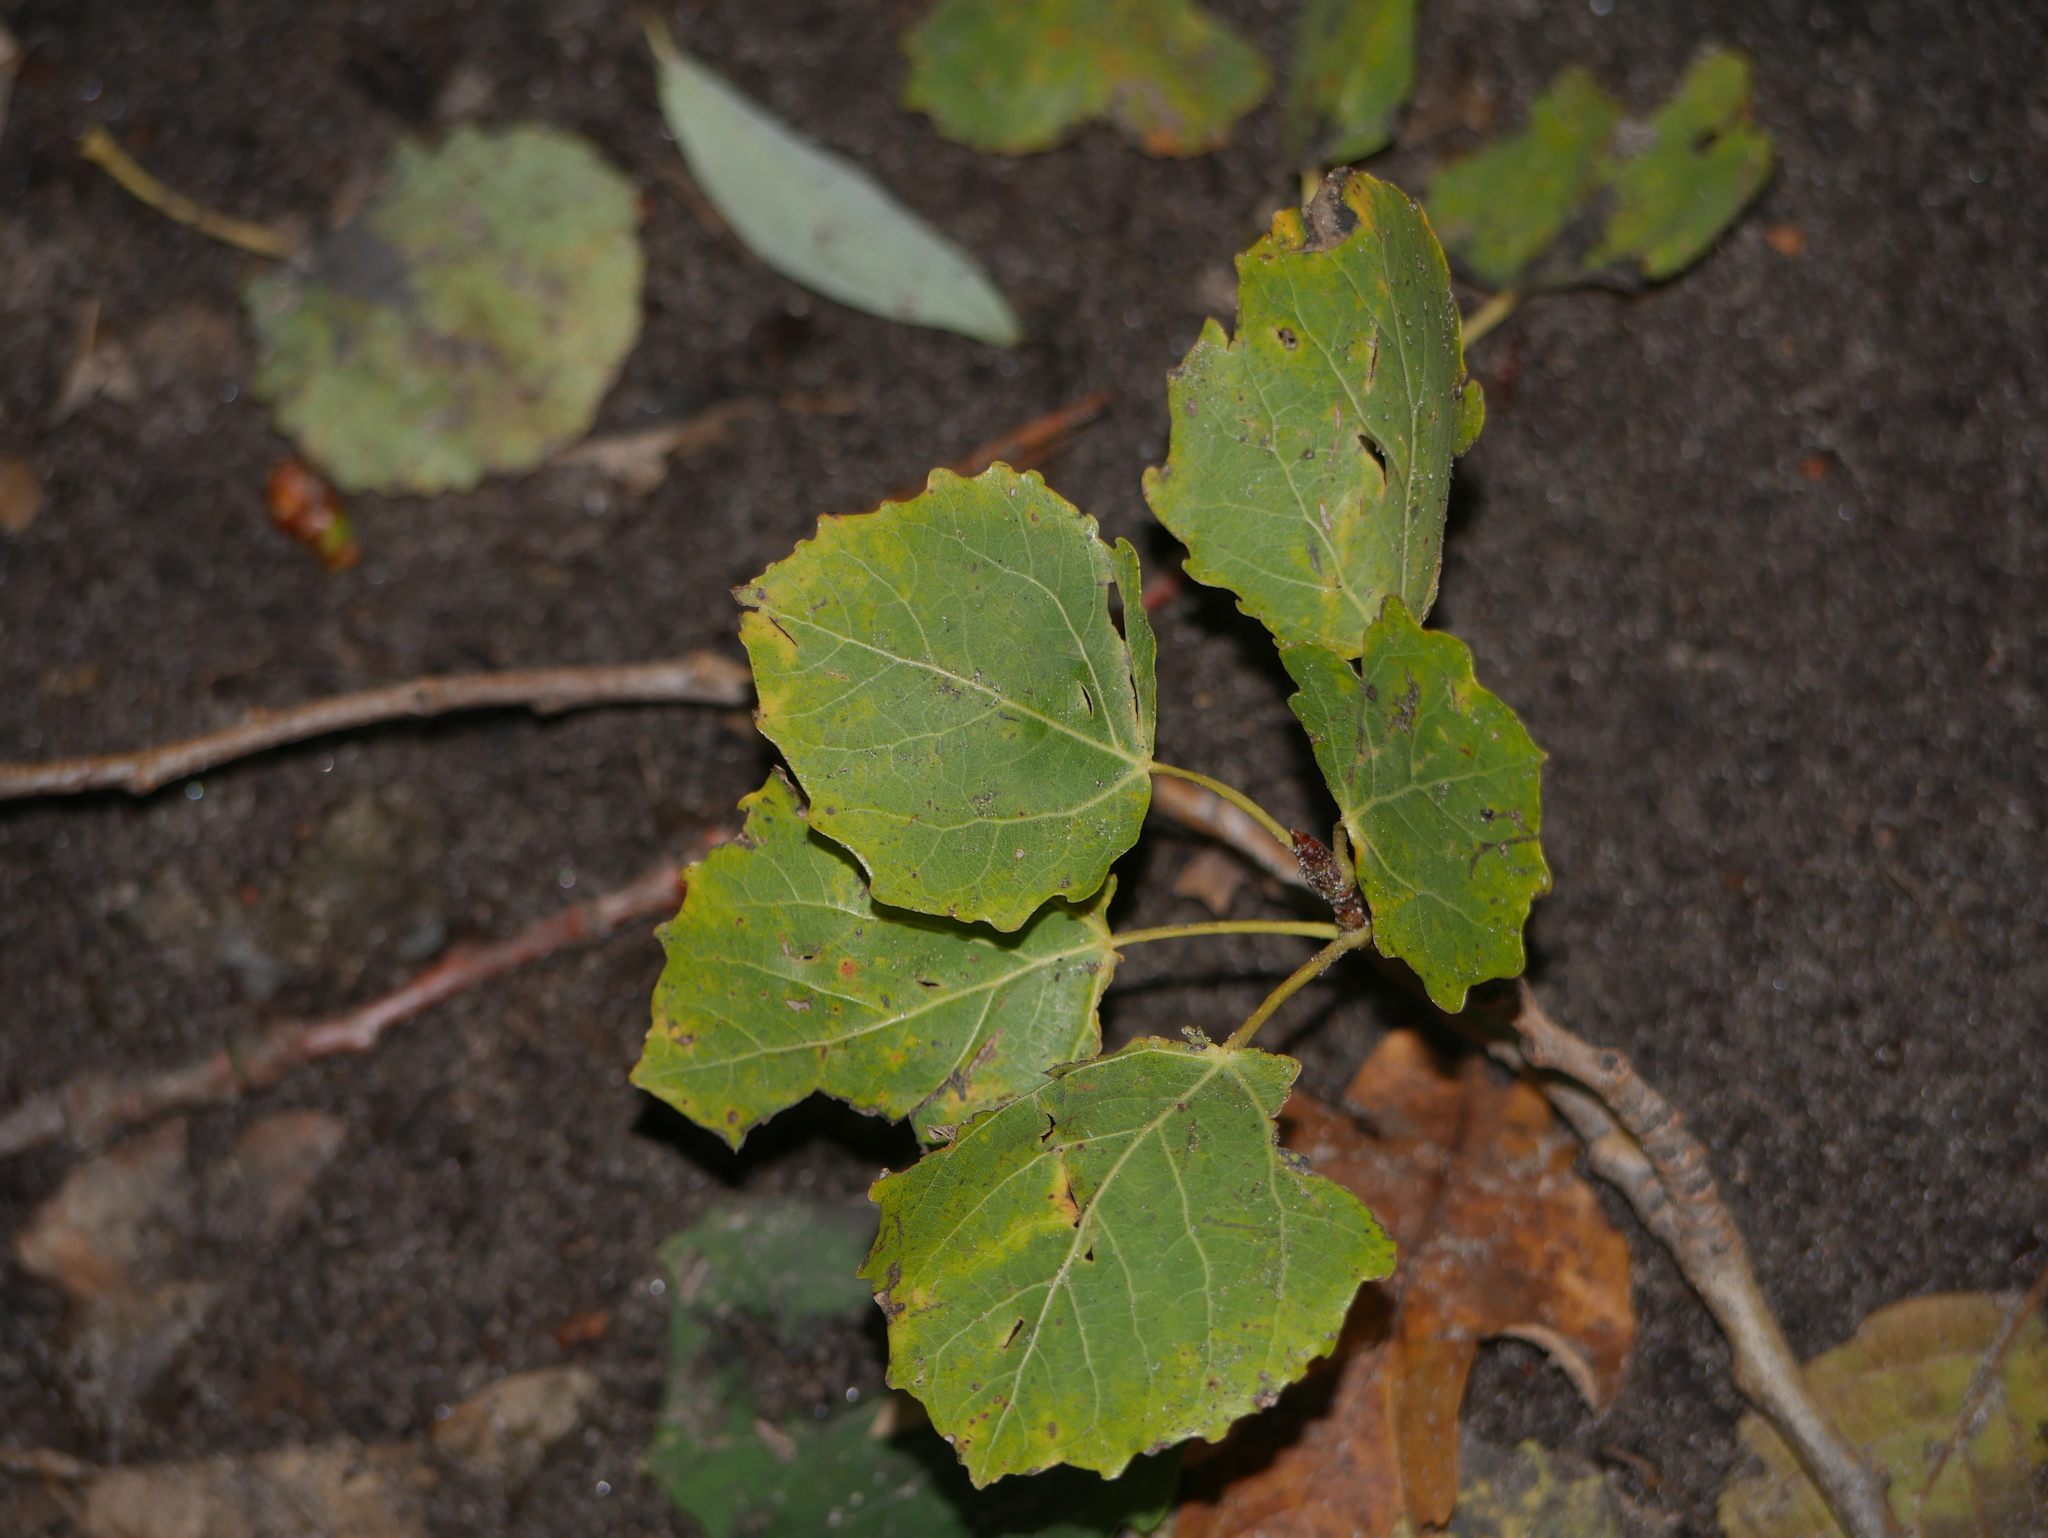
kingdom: Plantae
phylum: Tracheophyta
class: Magnoliopsida
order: Malpighiales
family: Salicaceae
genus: Populus
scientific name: Populus tremula
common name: European aspen
